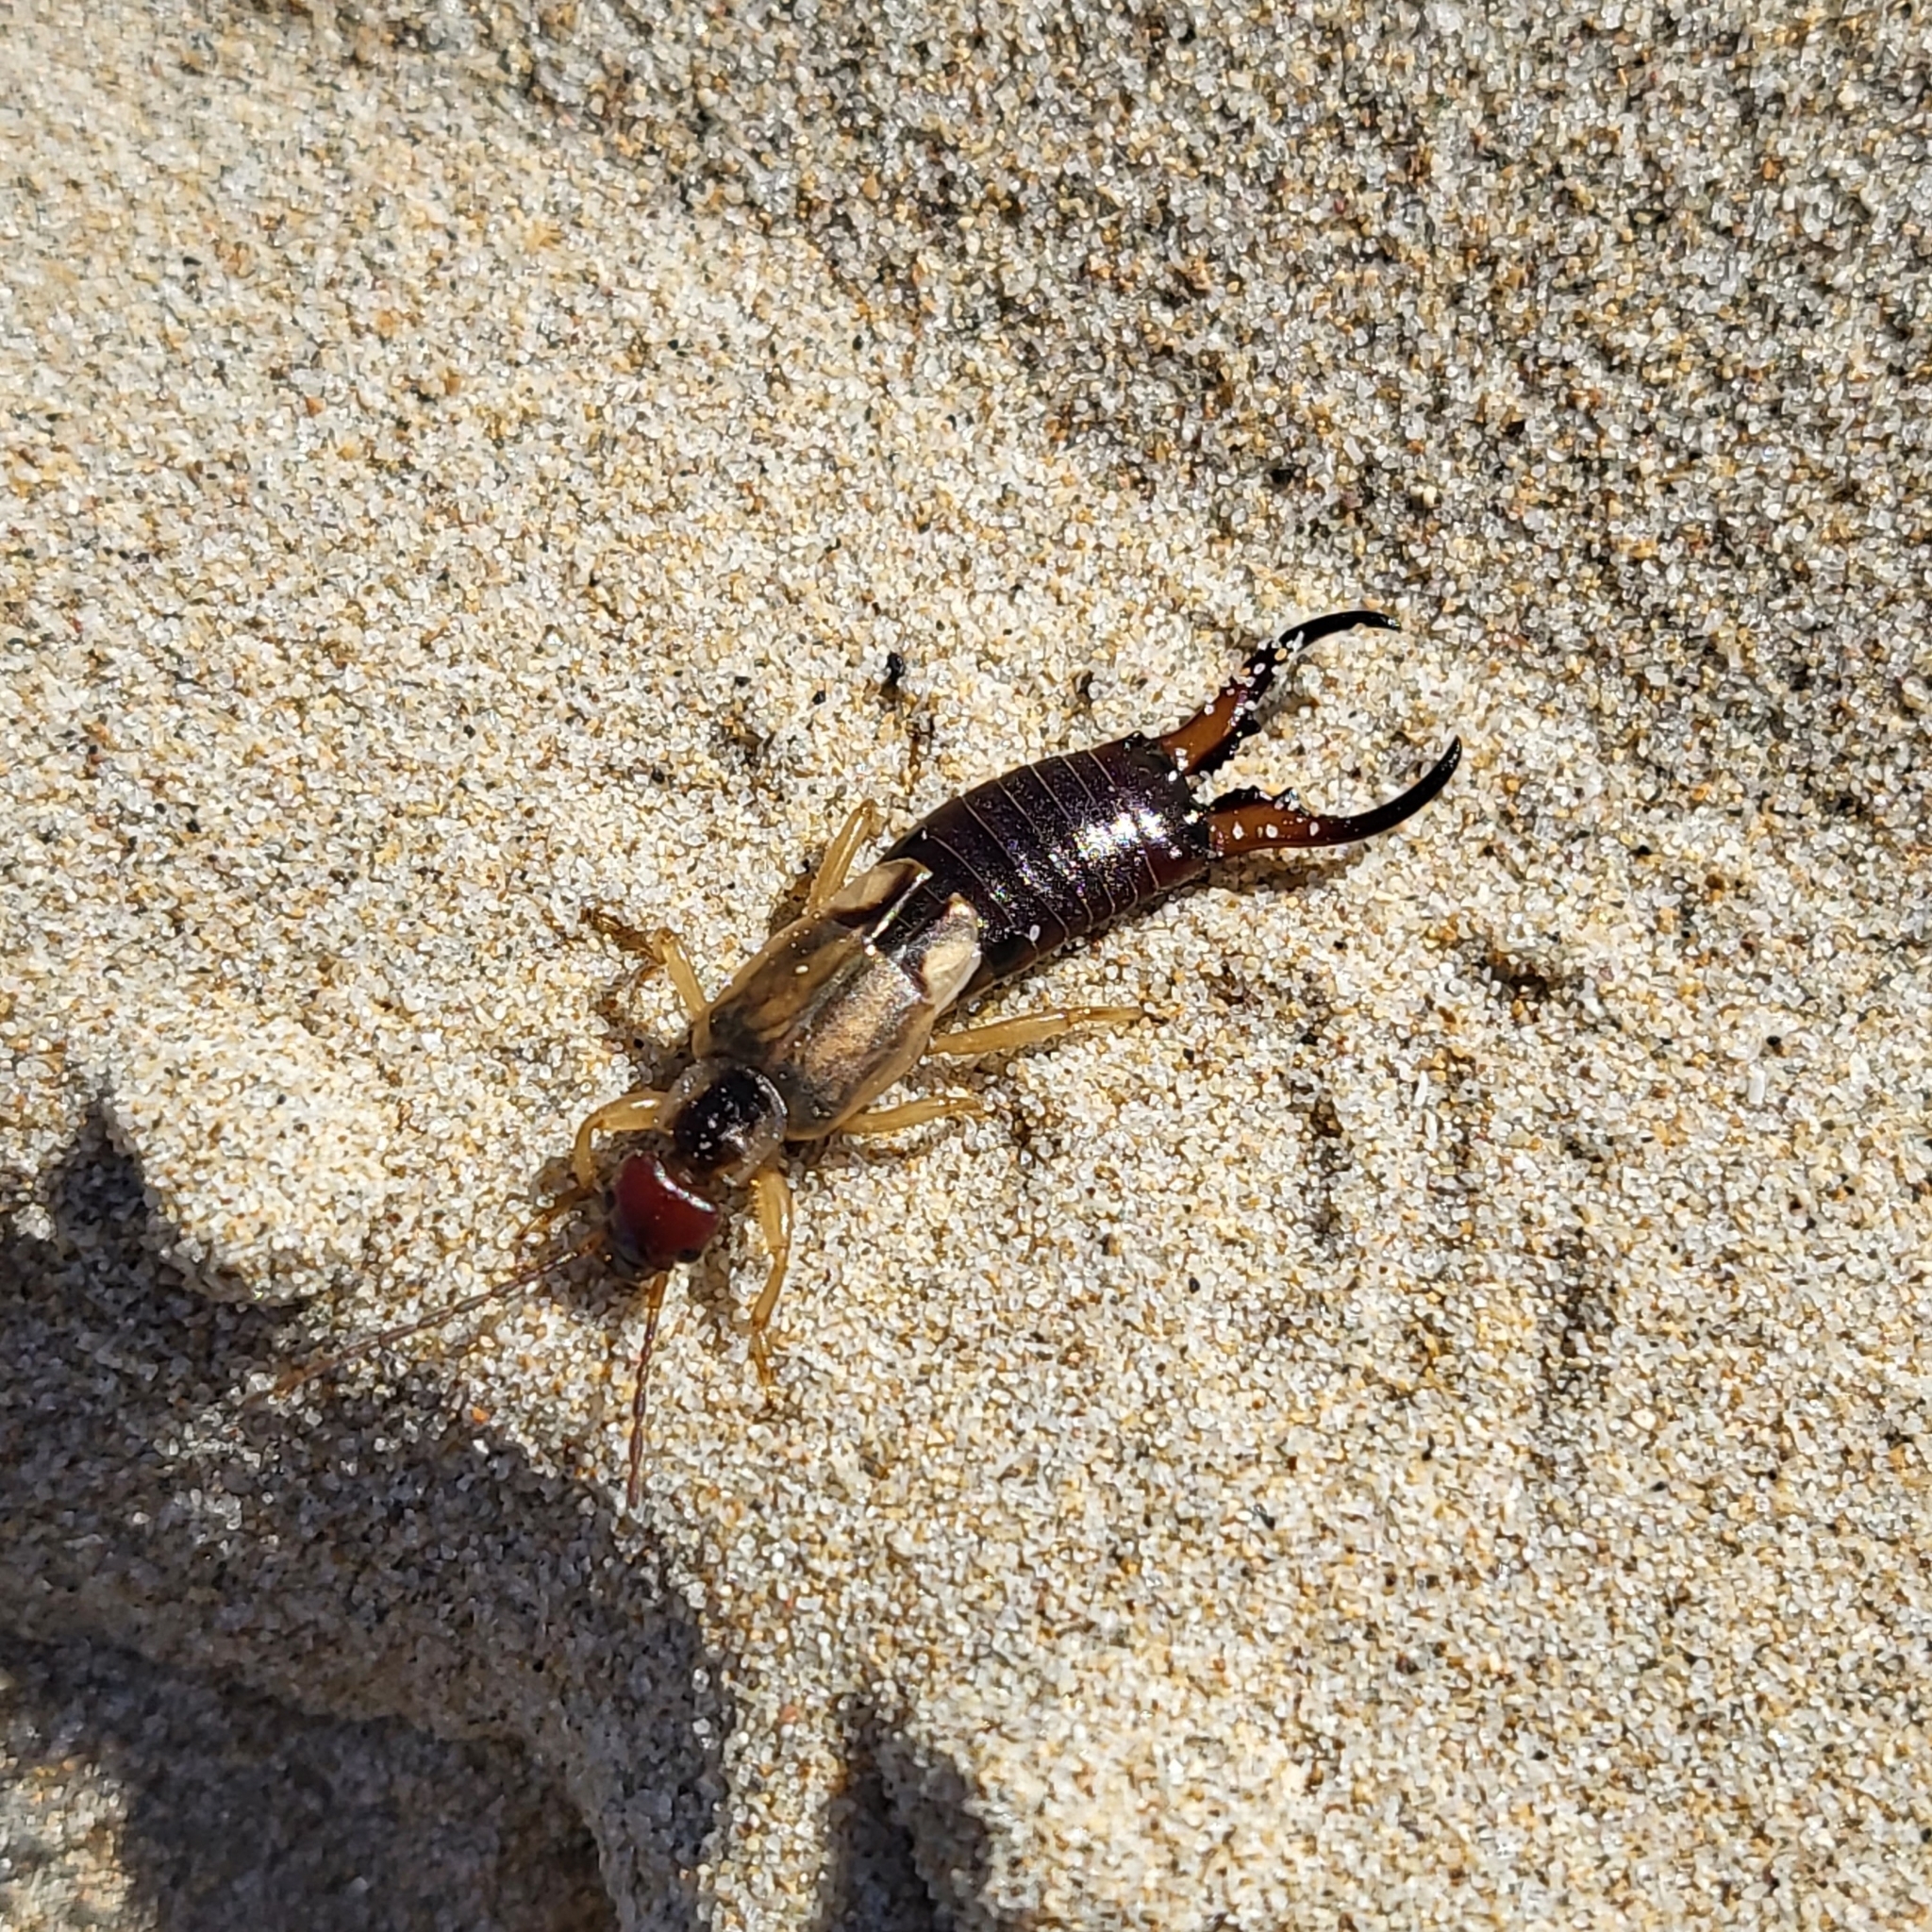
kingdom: Animalia
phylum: Arthropoda
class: Insecta
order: Dermaptera
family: Forficulidae
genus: Forficula
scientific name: Forficula
